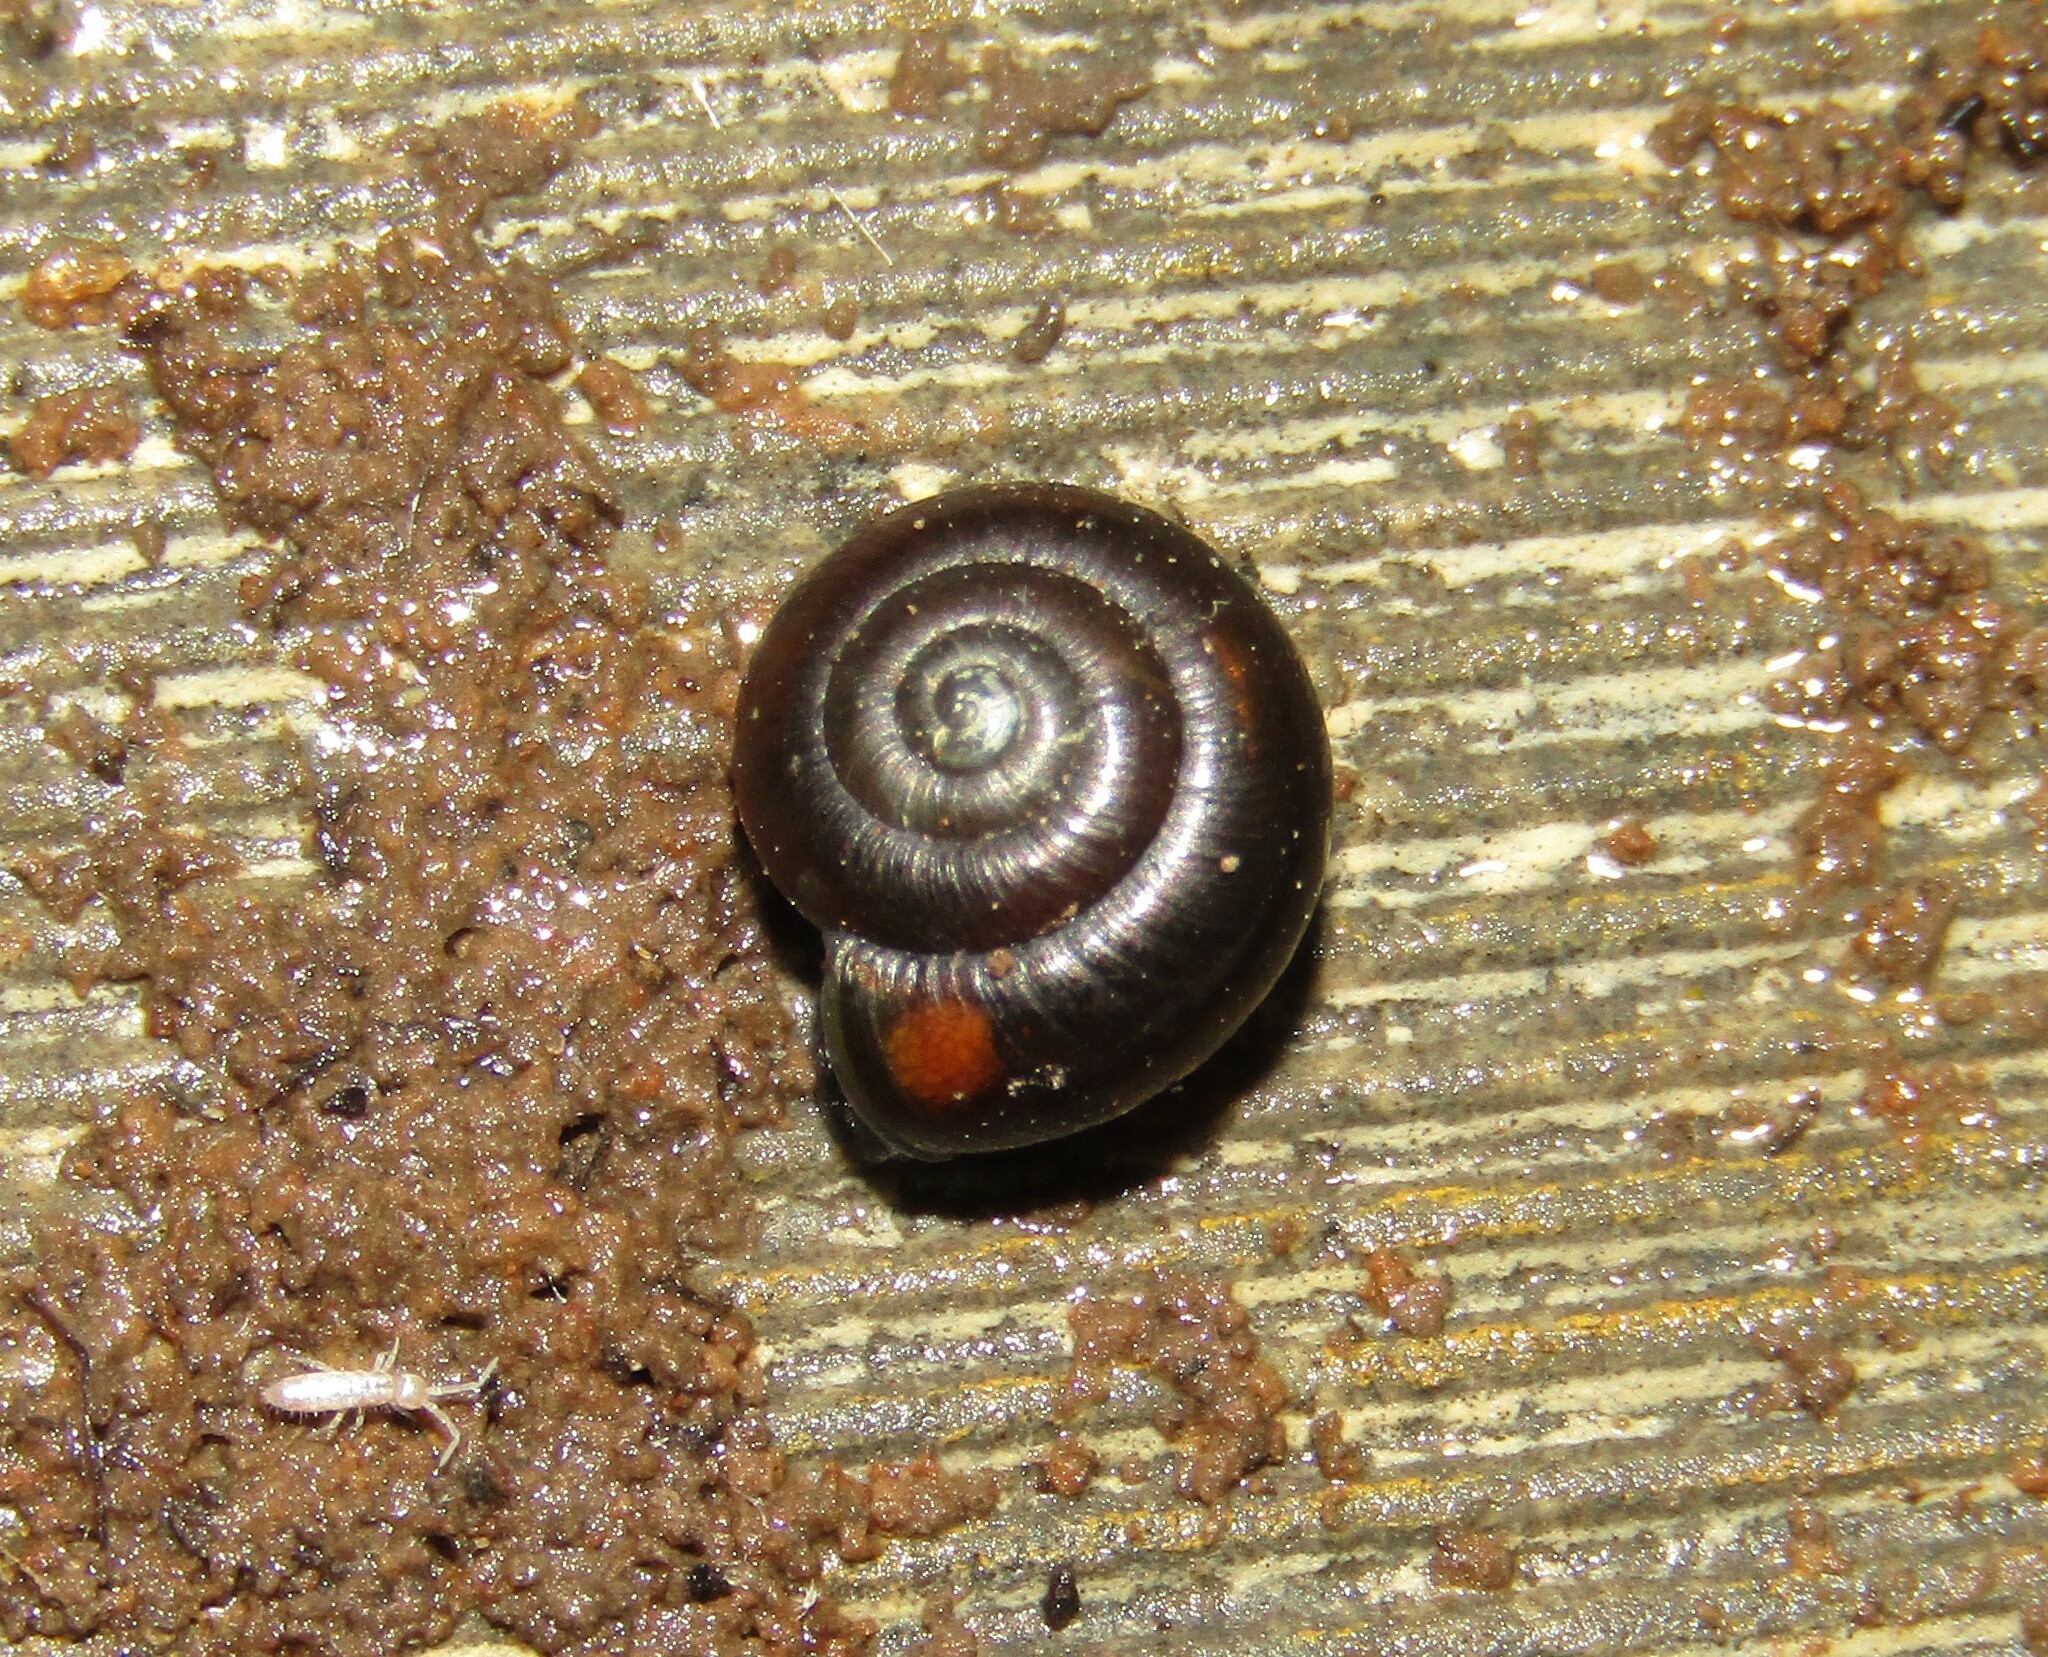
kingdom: Animalia
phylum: Mollusca
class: Gastropoda
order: Stylommatophora
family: Gastrodontidae
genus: Zonitoides
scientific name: Zonitoides nitidus
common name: Shiny glass snail
